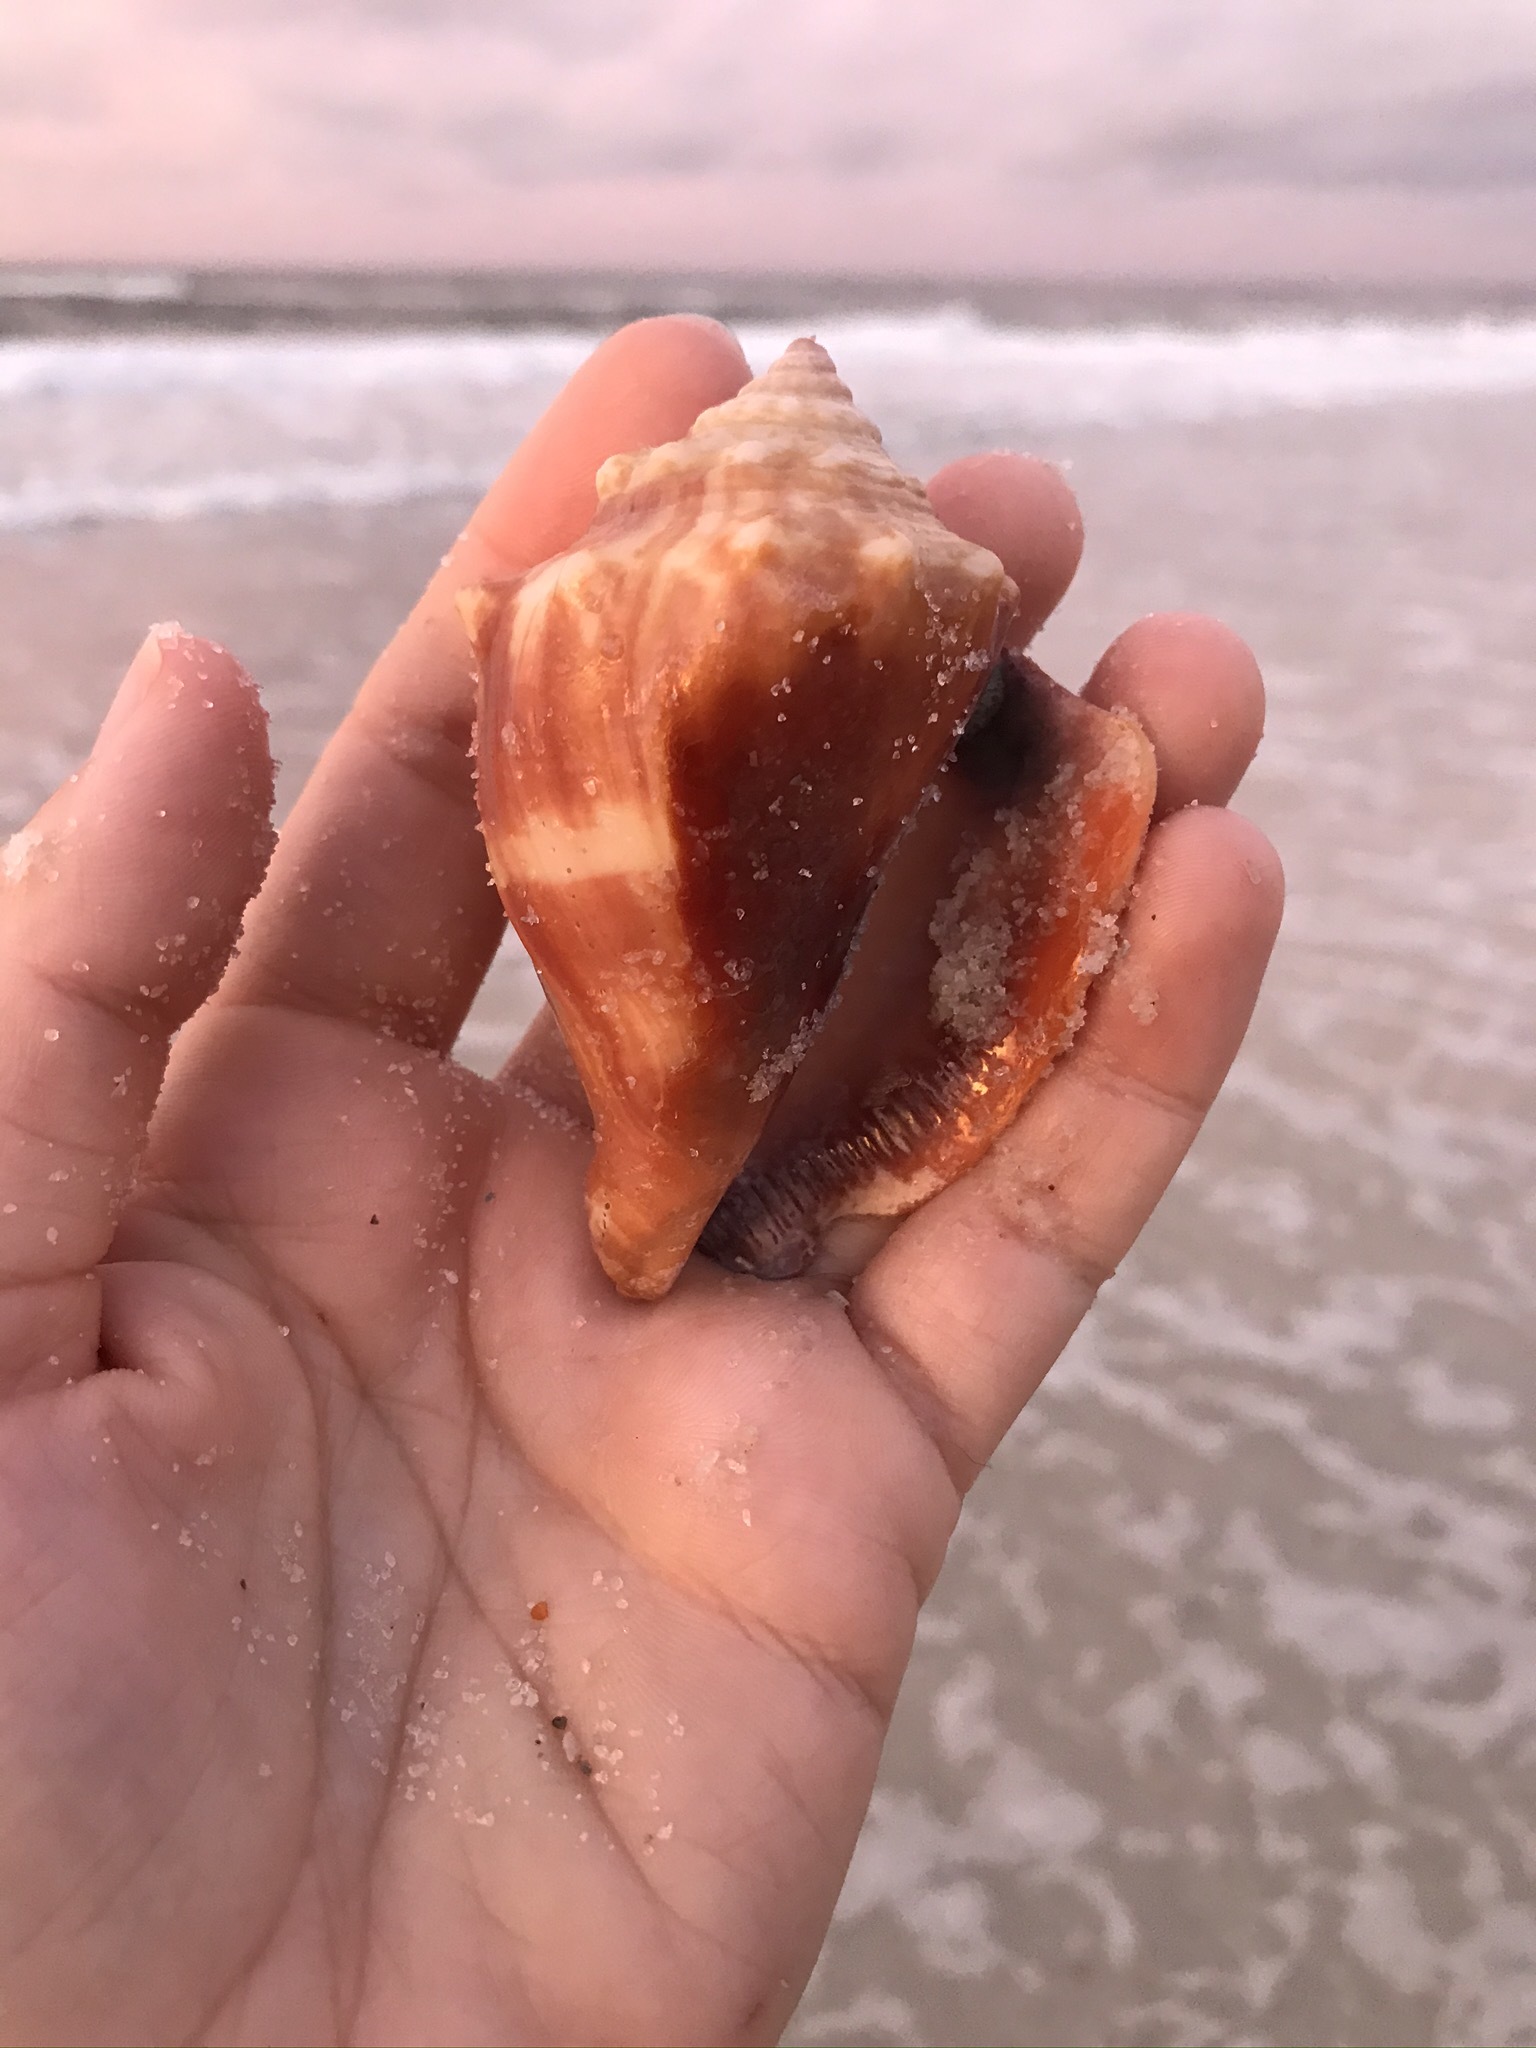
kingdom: Animalia
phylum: Mollusca
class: Gastropoda
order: Littorinimorpha
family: Strombidae
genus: Strombus
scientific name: Strombus alatus
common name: Florida fighting conch
